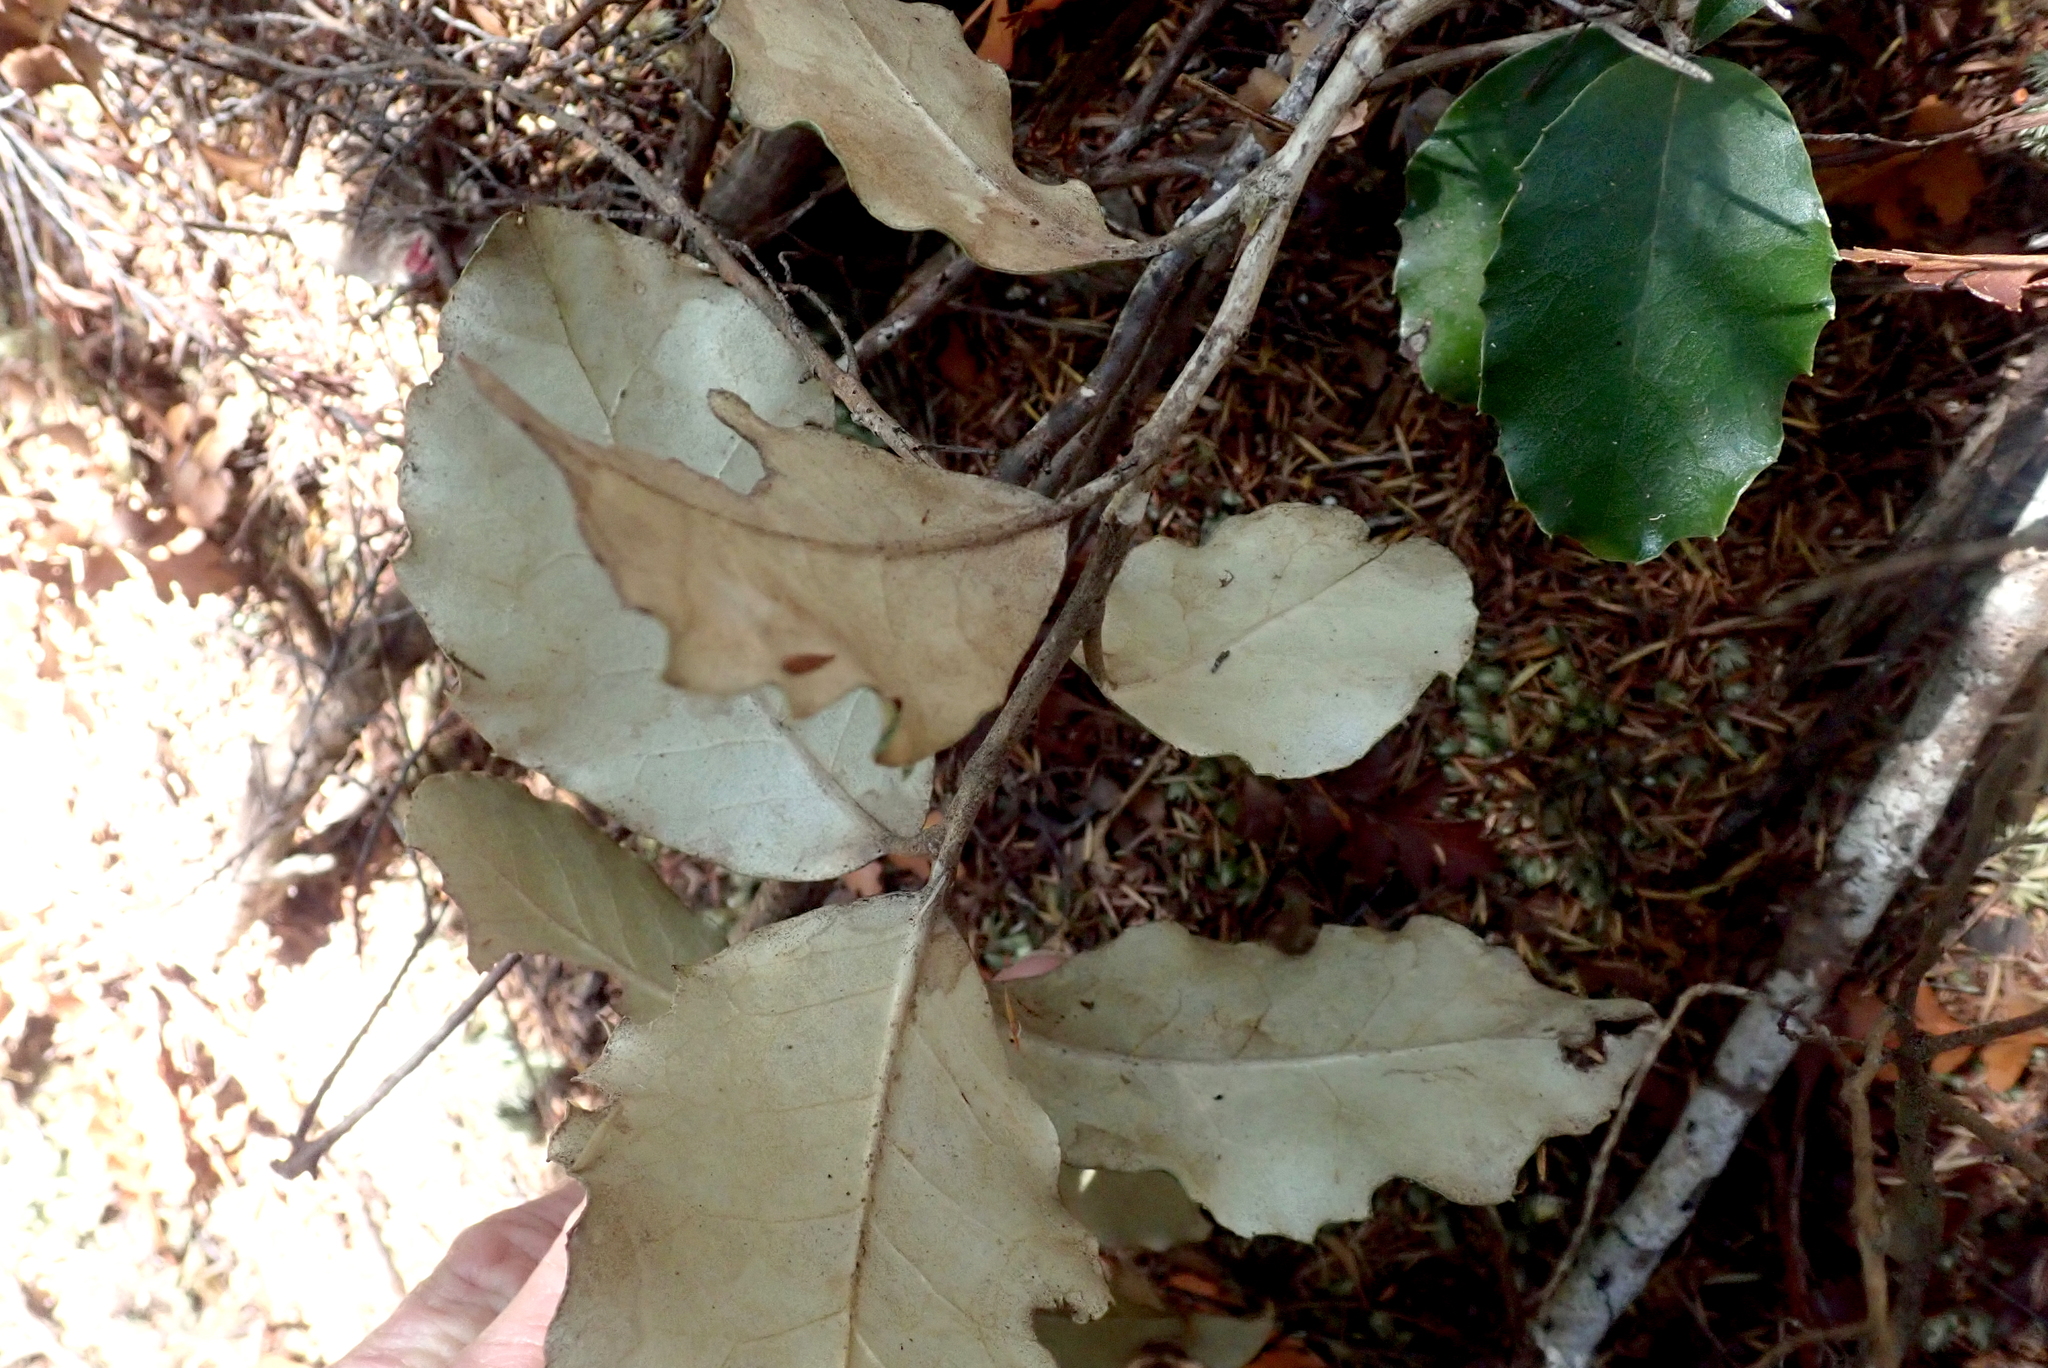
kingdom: Plantae
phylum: Tracheophyta
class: Magnoliopsida
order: Asterales
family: Asteraceae
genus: Olearia
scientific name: Olearia furfuracea
